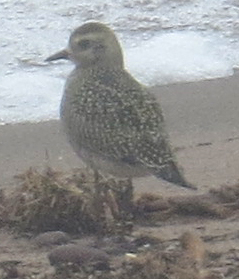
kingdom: Animalia
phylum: Chordata
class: Aves
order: Charadriiformes
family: Charadriidae
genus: Pluvialis
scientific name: Pluvialis dominica
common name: American golden plover
